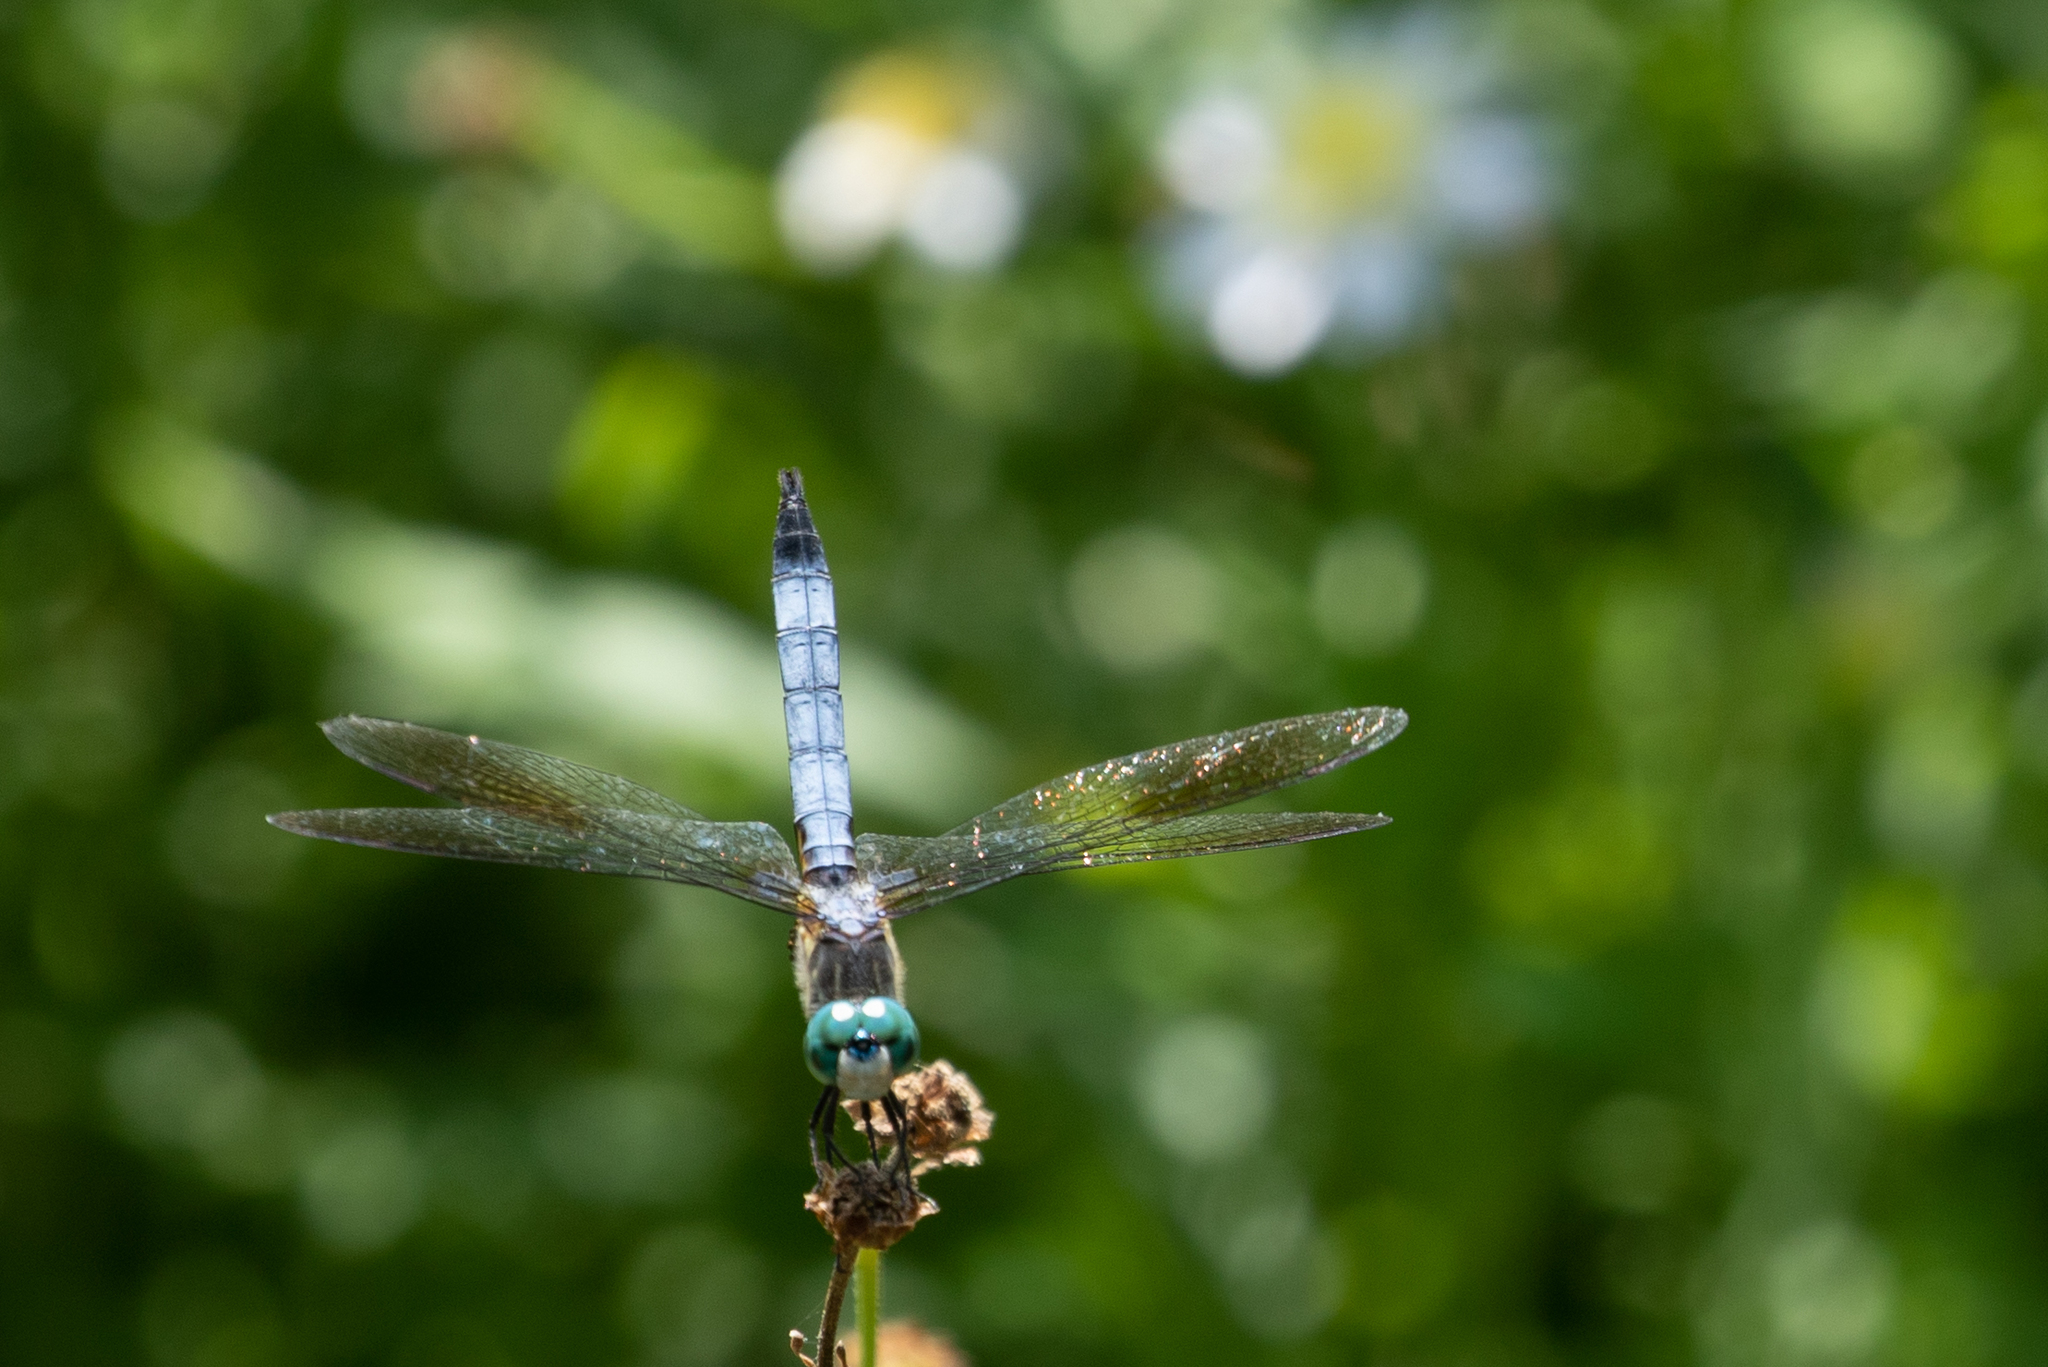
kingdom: Animalia
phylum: Arthropoda
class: Insecta
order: Odonata
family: Libellulidae
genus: Pachydiplax
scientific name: Pachydiplax longipennis
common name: Blue dasher
